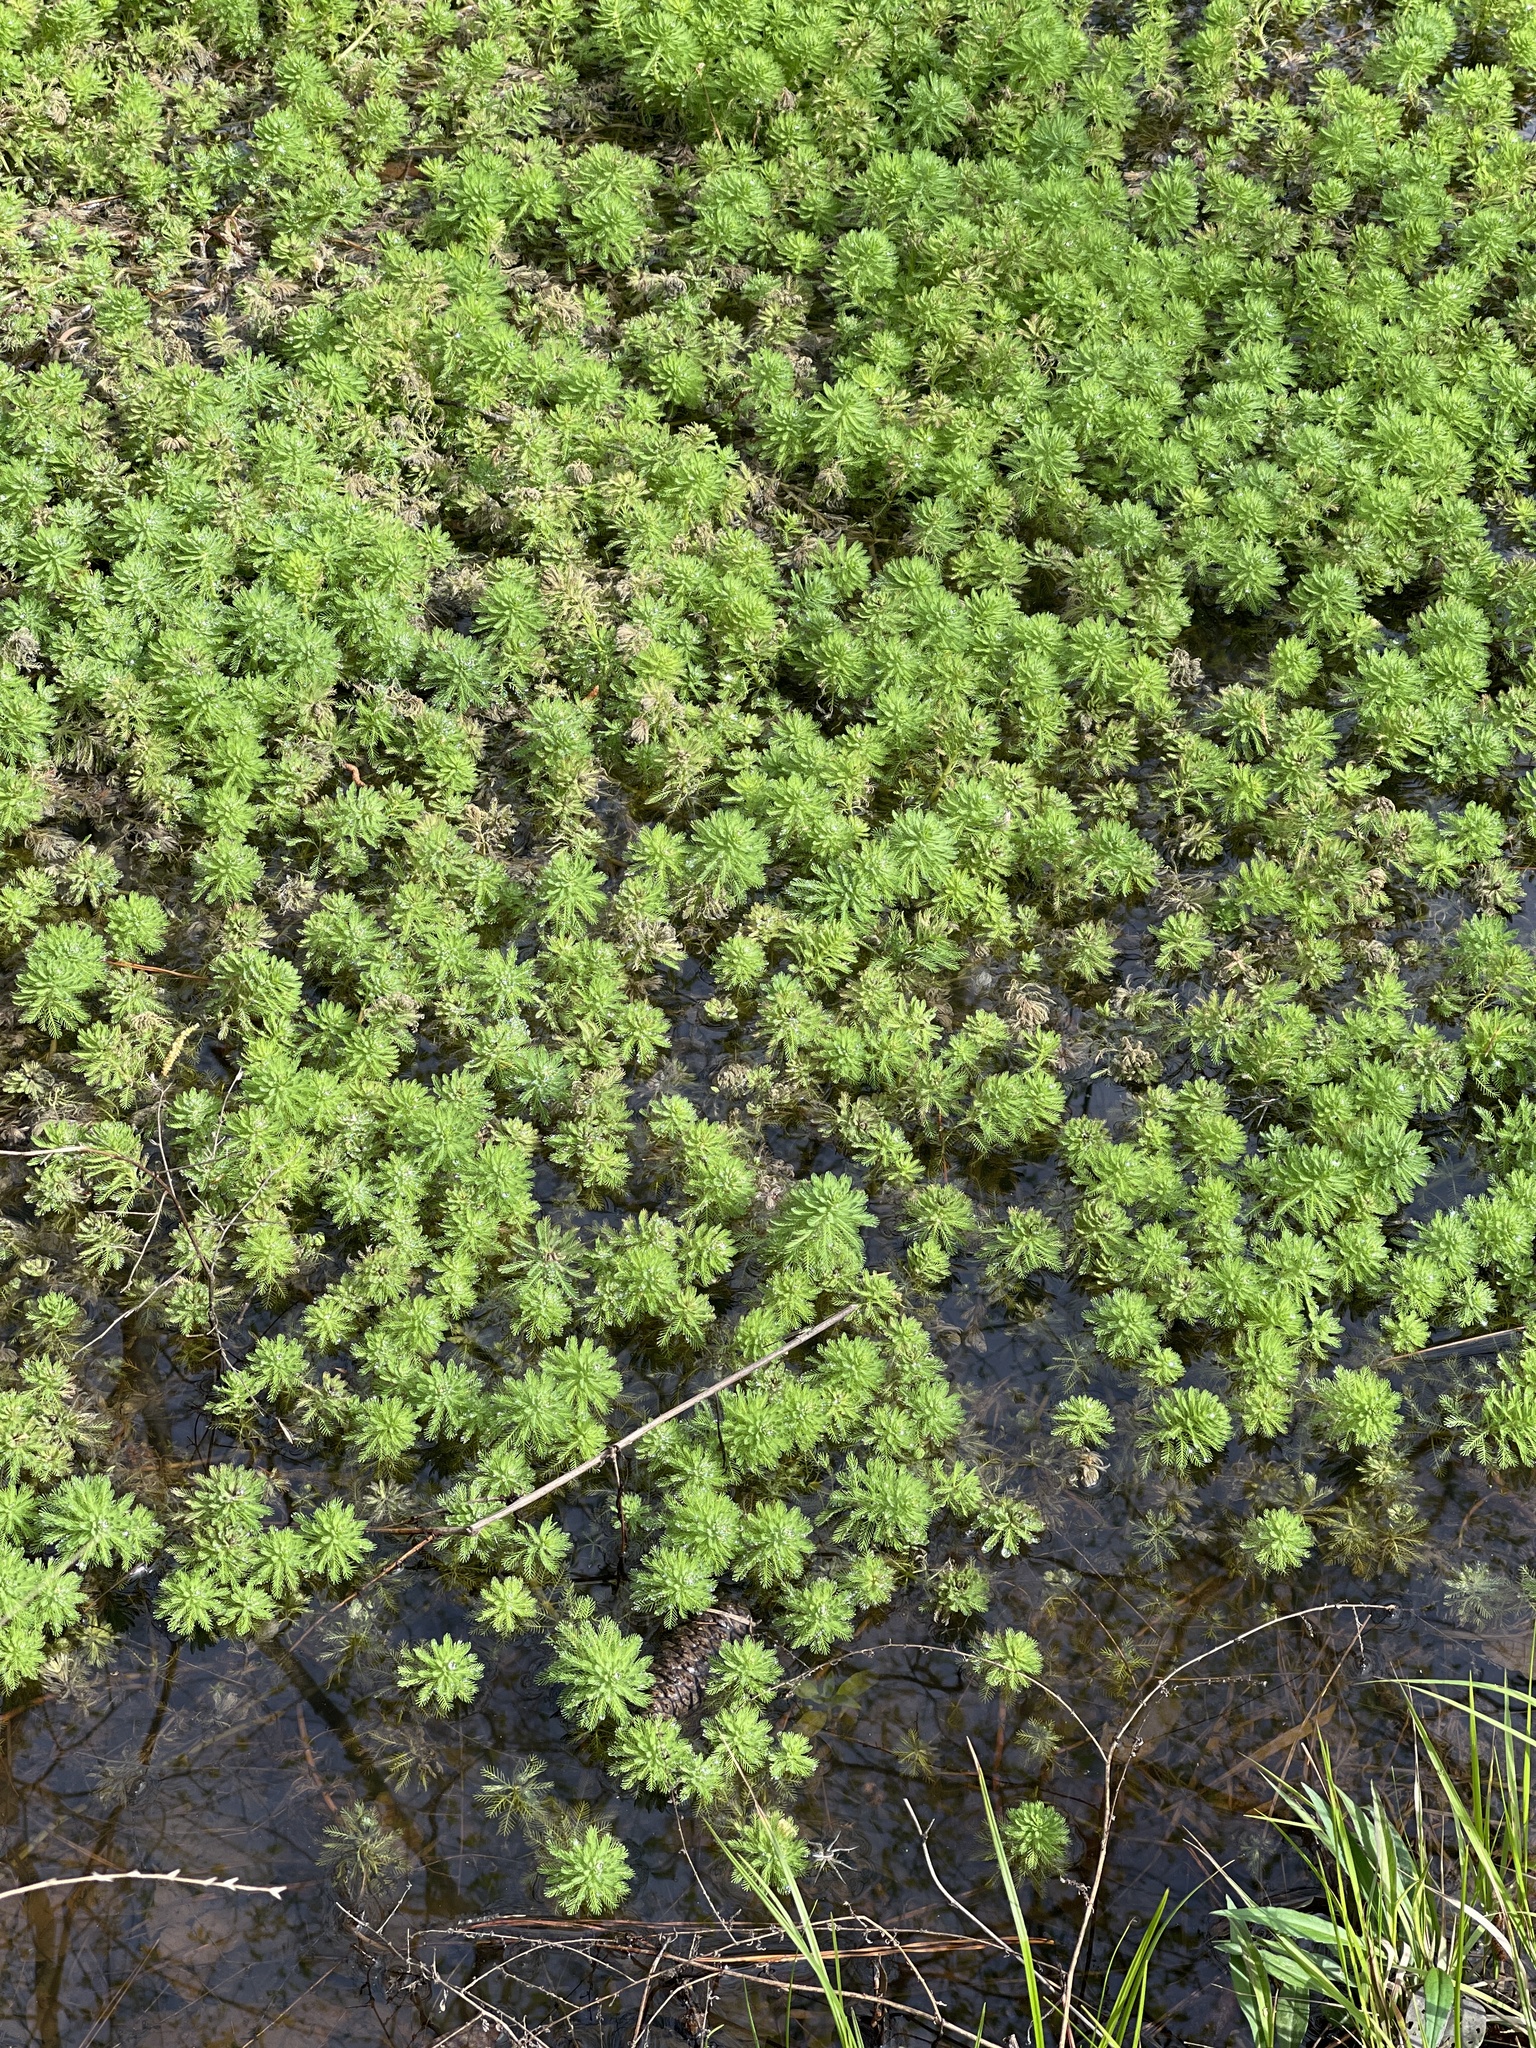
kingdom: Plantae
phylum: Tracheophyta
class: Magnoliopsida
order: Saxifragales
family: Haloragaceae
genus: Myriophyllum
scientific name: Myriophyllum aquaticum
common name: Parrot's feather
